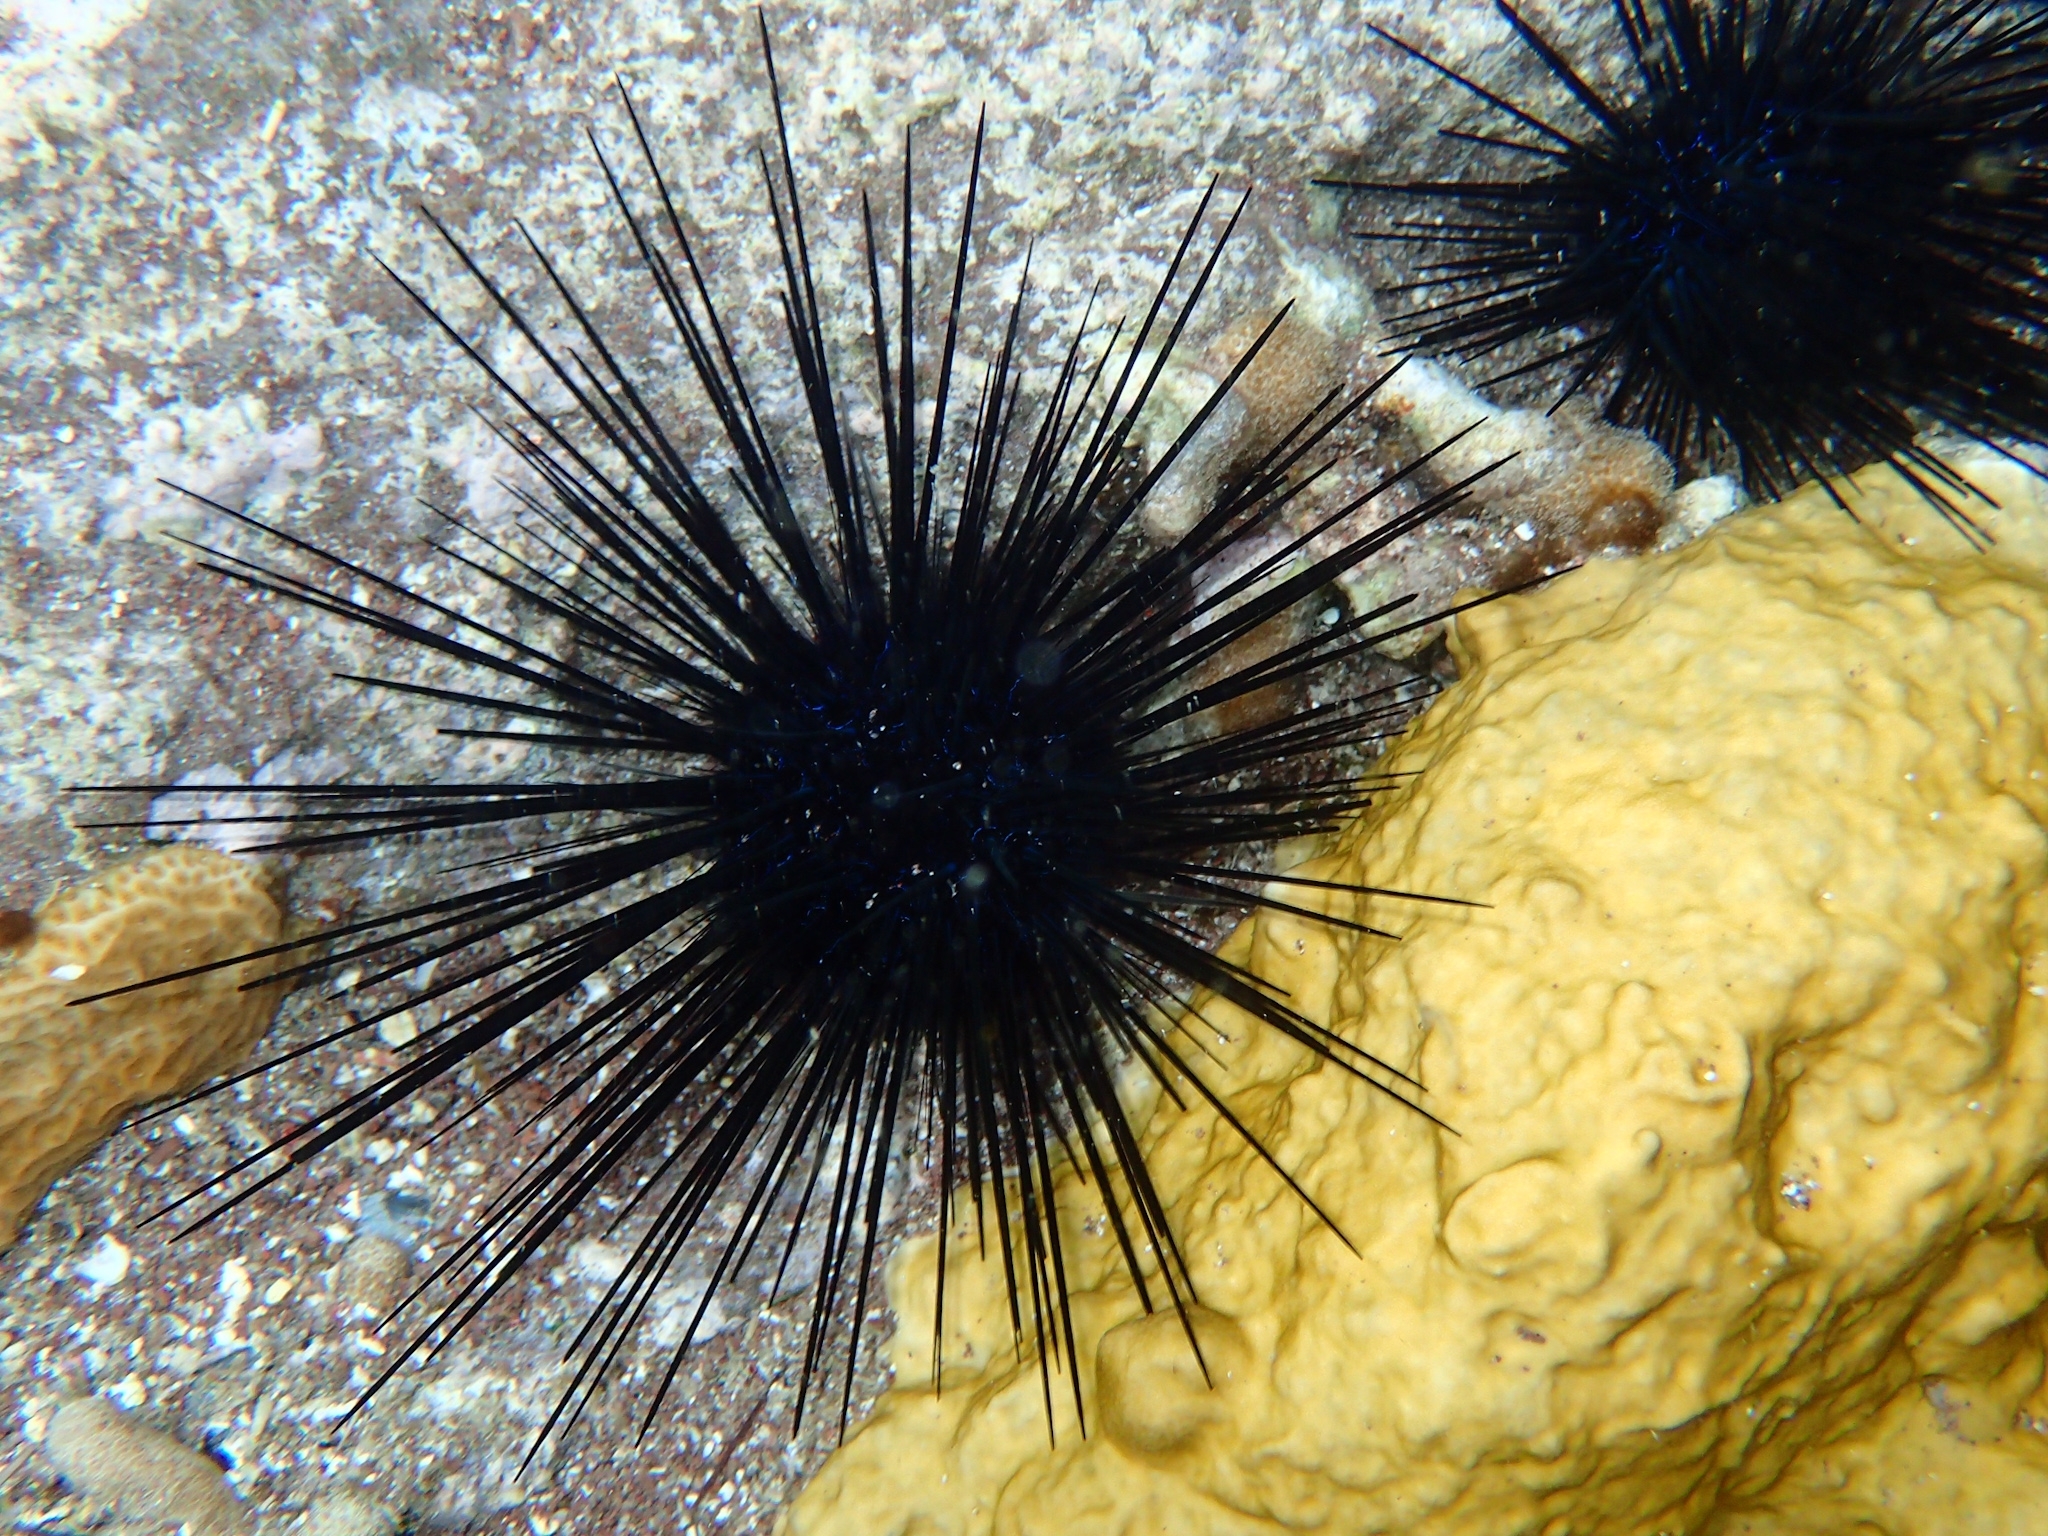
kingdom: Animalia
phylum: Echinodermata
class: Echinoidea
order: Diadematoida
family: Diadematidae
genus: Diadema
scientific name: Diadema antillarum
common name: Spiny urchin
